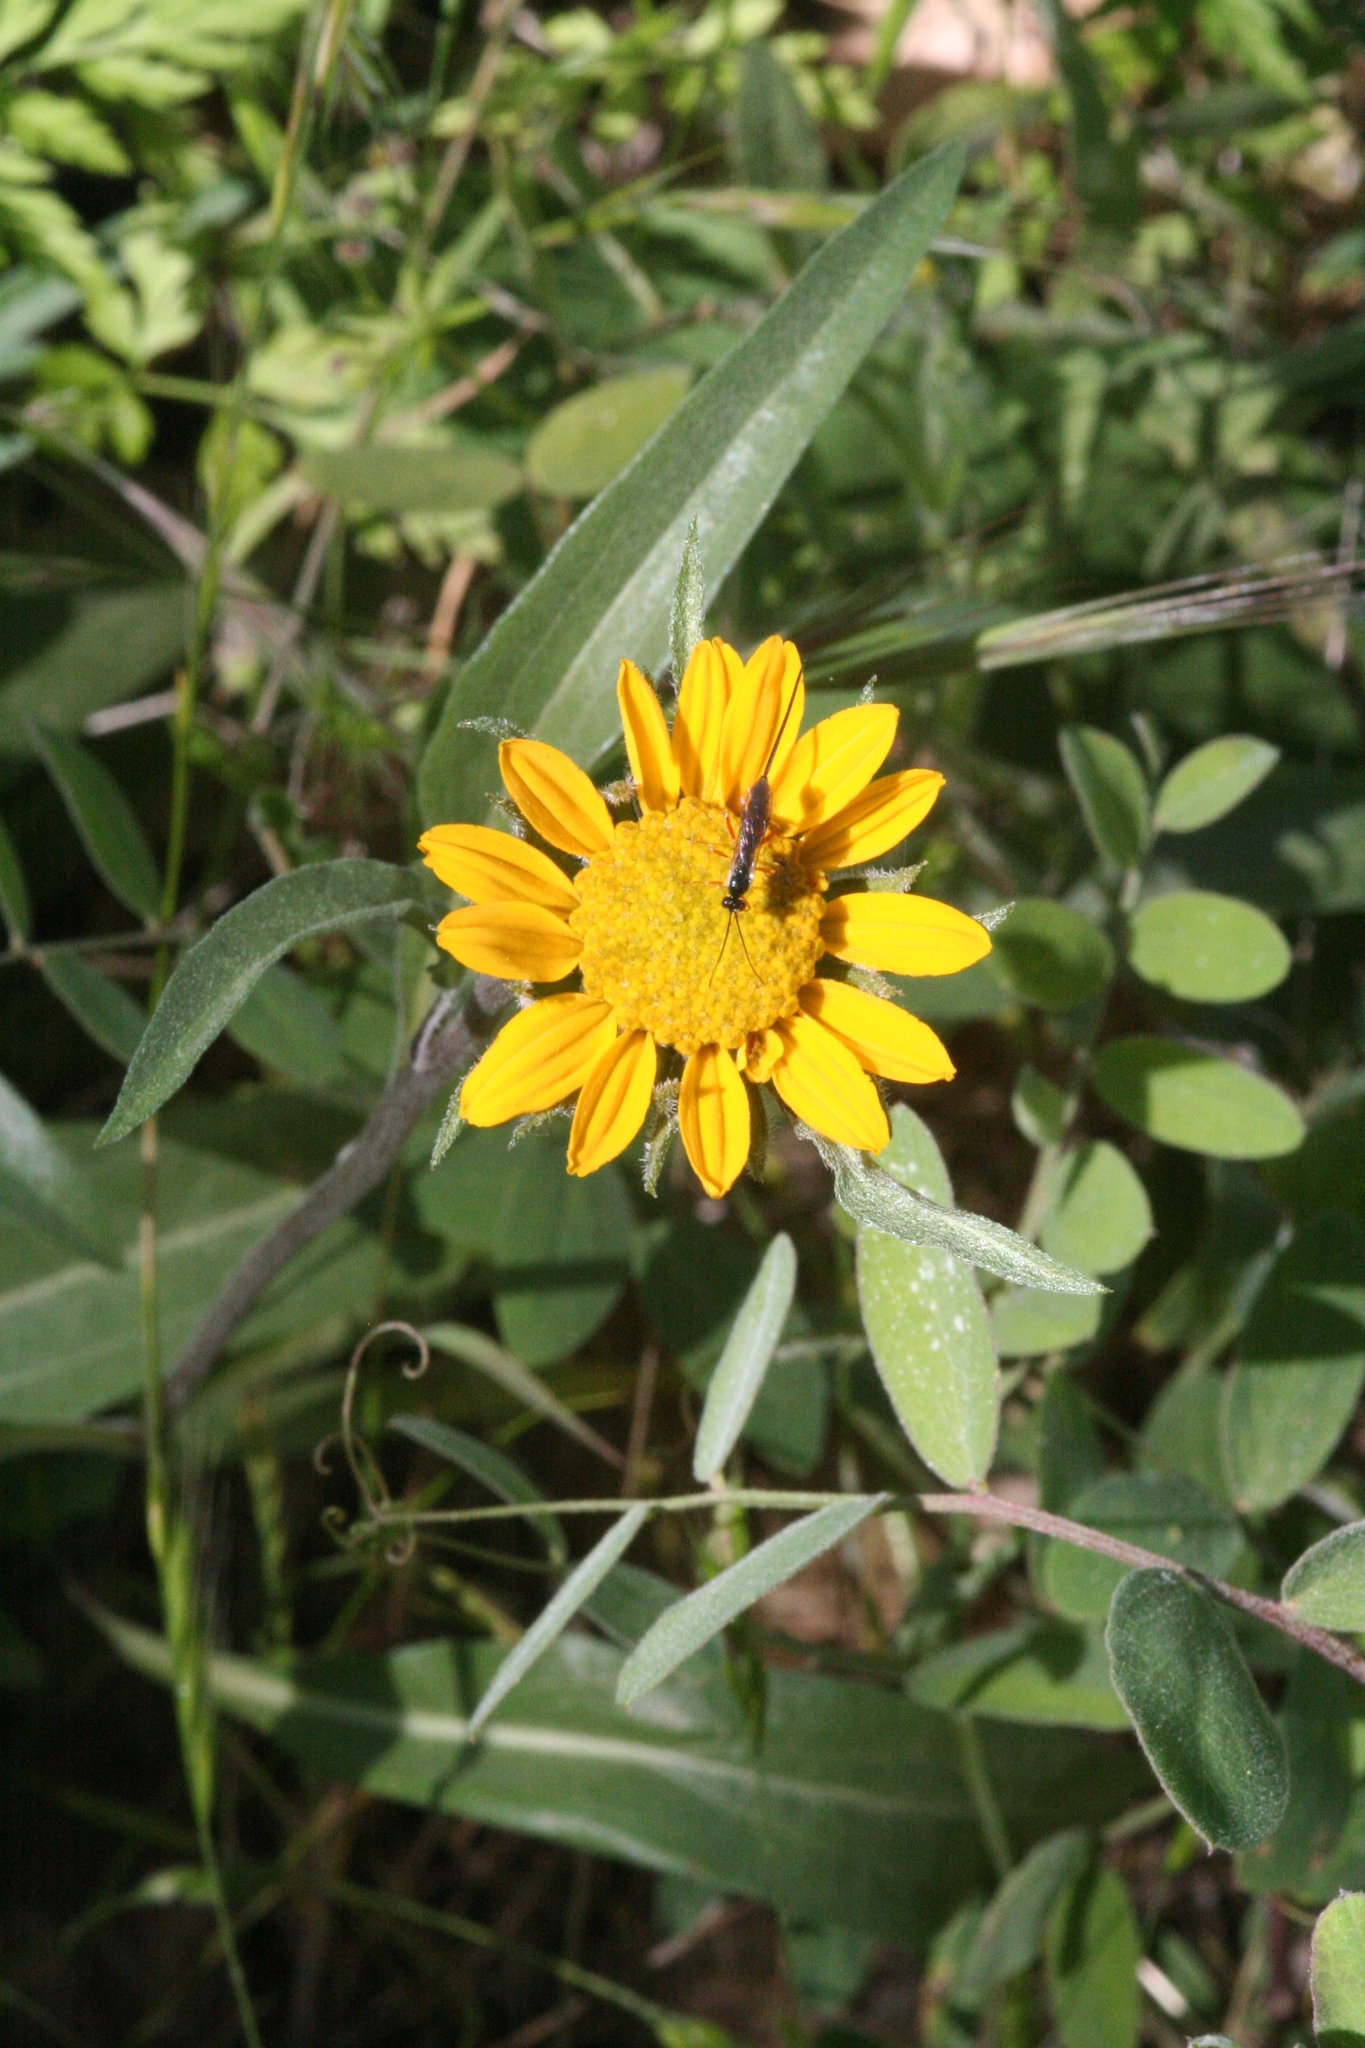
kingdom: Plantae
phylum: Tracheophyta
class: Magnoliopsida
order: Asterales
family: Asteraceae
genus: Helianthella
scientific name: Helianthella californica
